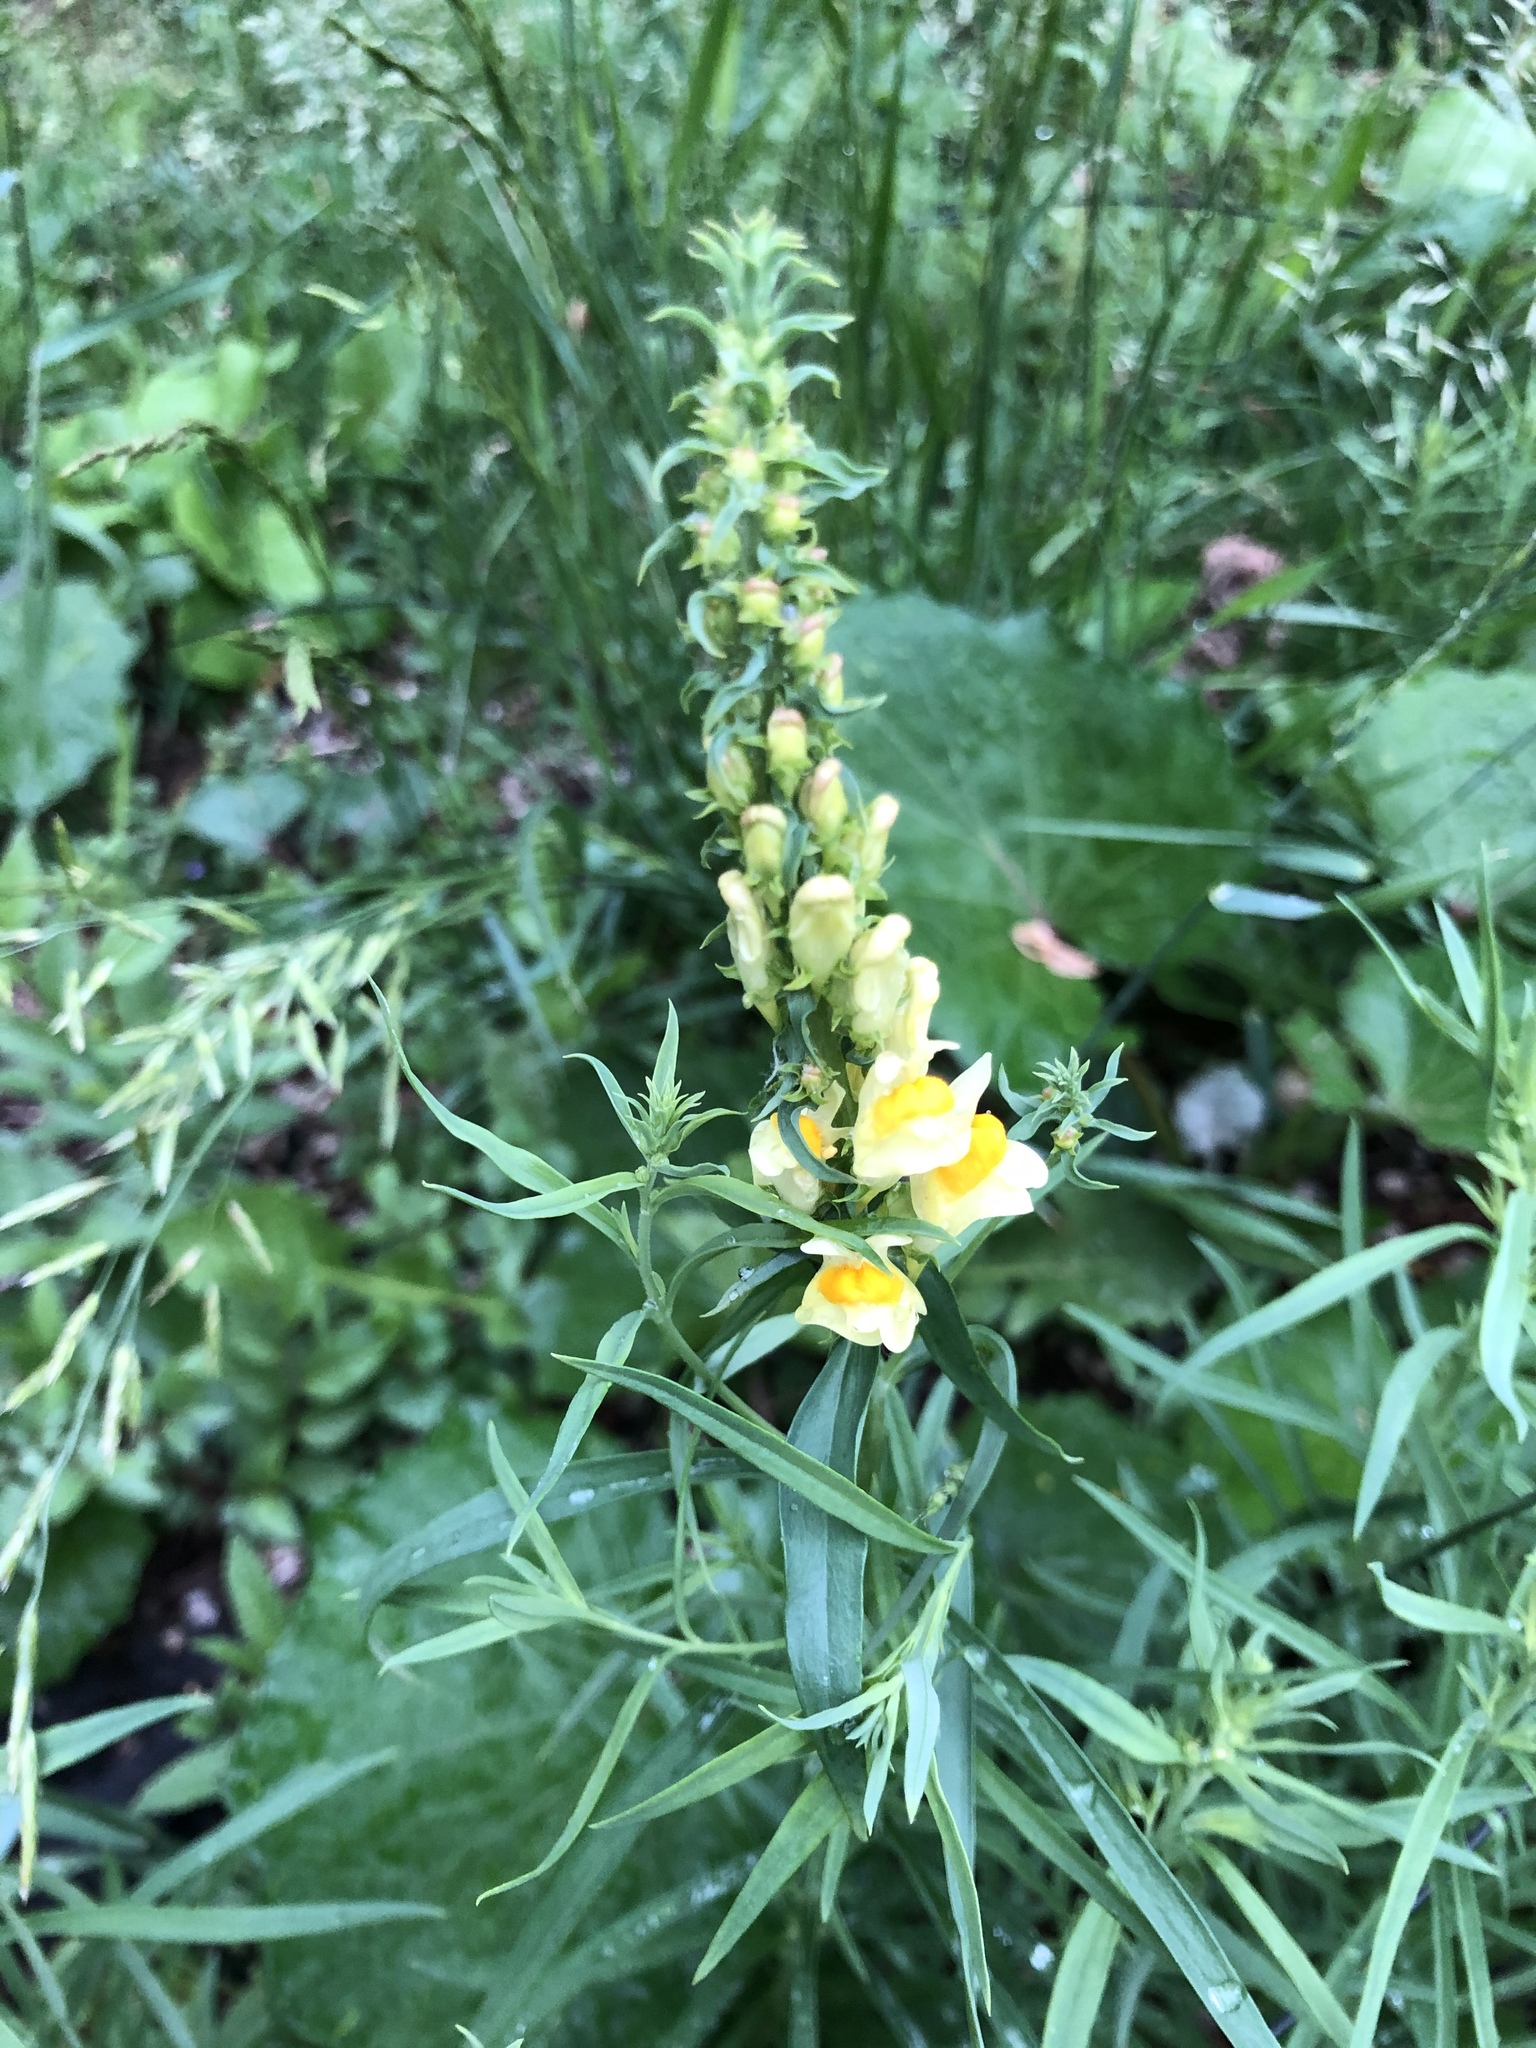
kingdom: Plantae
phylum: Tracheophyta
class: Magnoliopsida
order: Lamiales
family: Plantaginaceae
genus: Linaria
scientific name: Linaria vulgaris
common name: Butter and eggs
